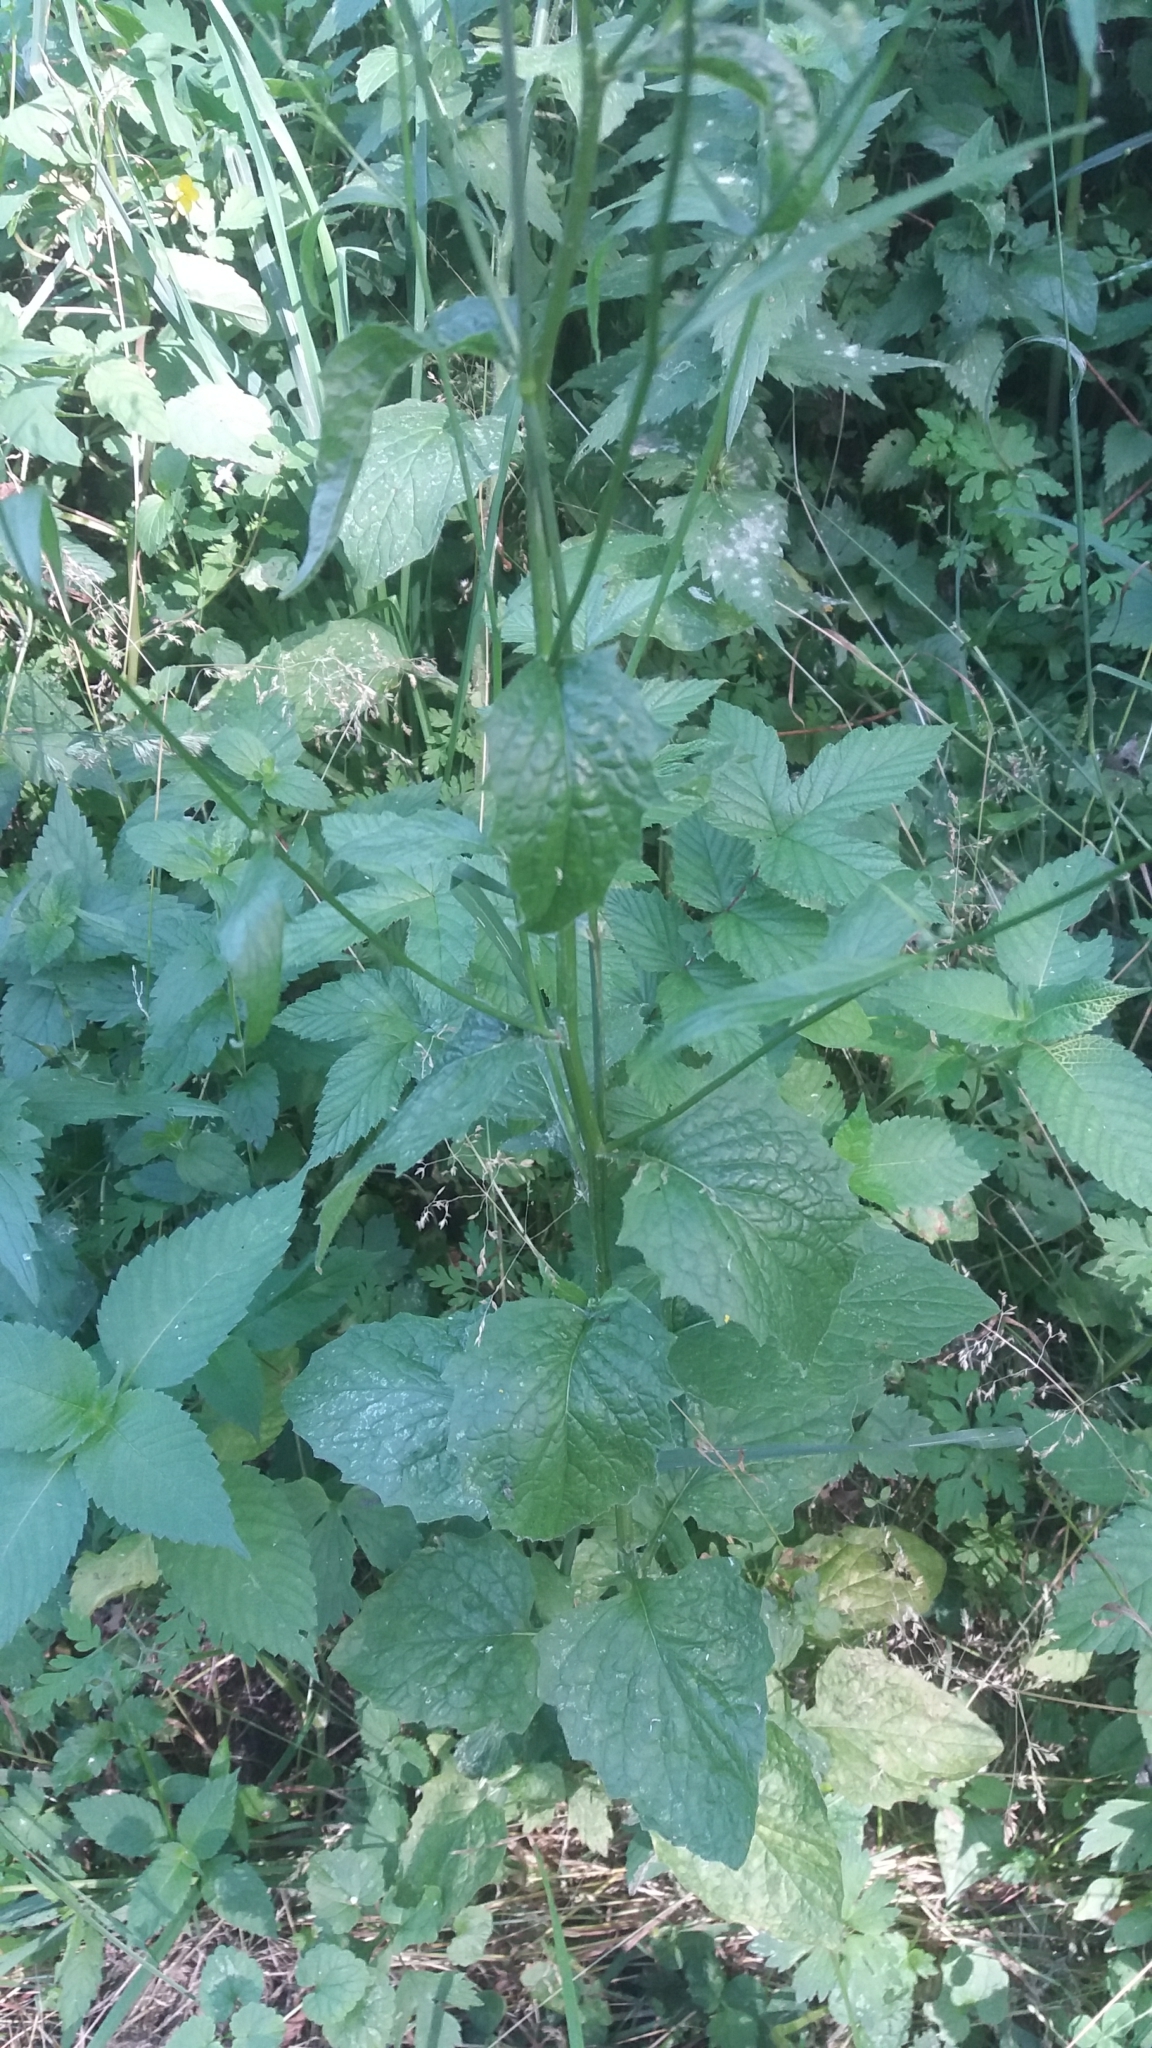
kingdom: Plantae
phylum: Tracheophyta
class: Magnoliopsida
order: Asterales
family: Asteraceae
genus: Lapsana
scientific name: Lapsana communis
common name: Nipplewort
